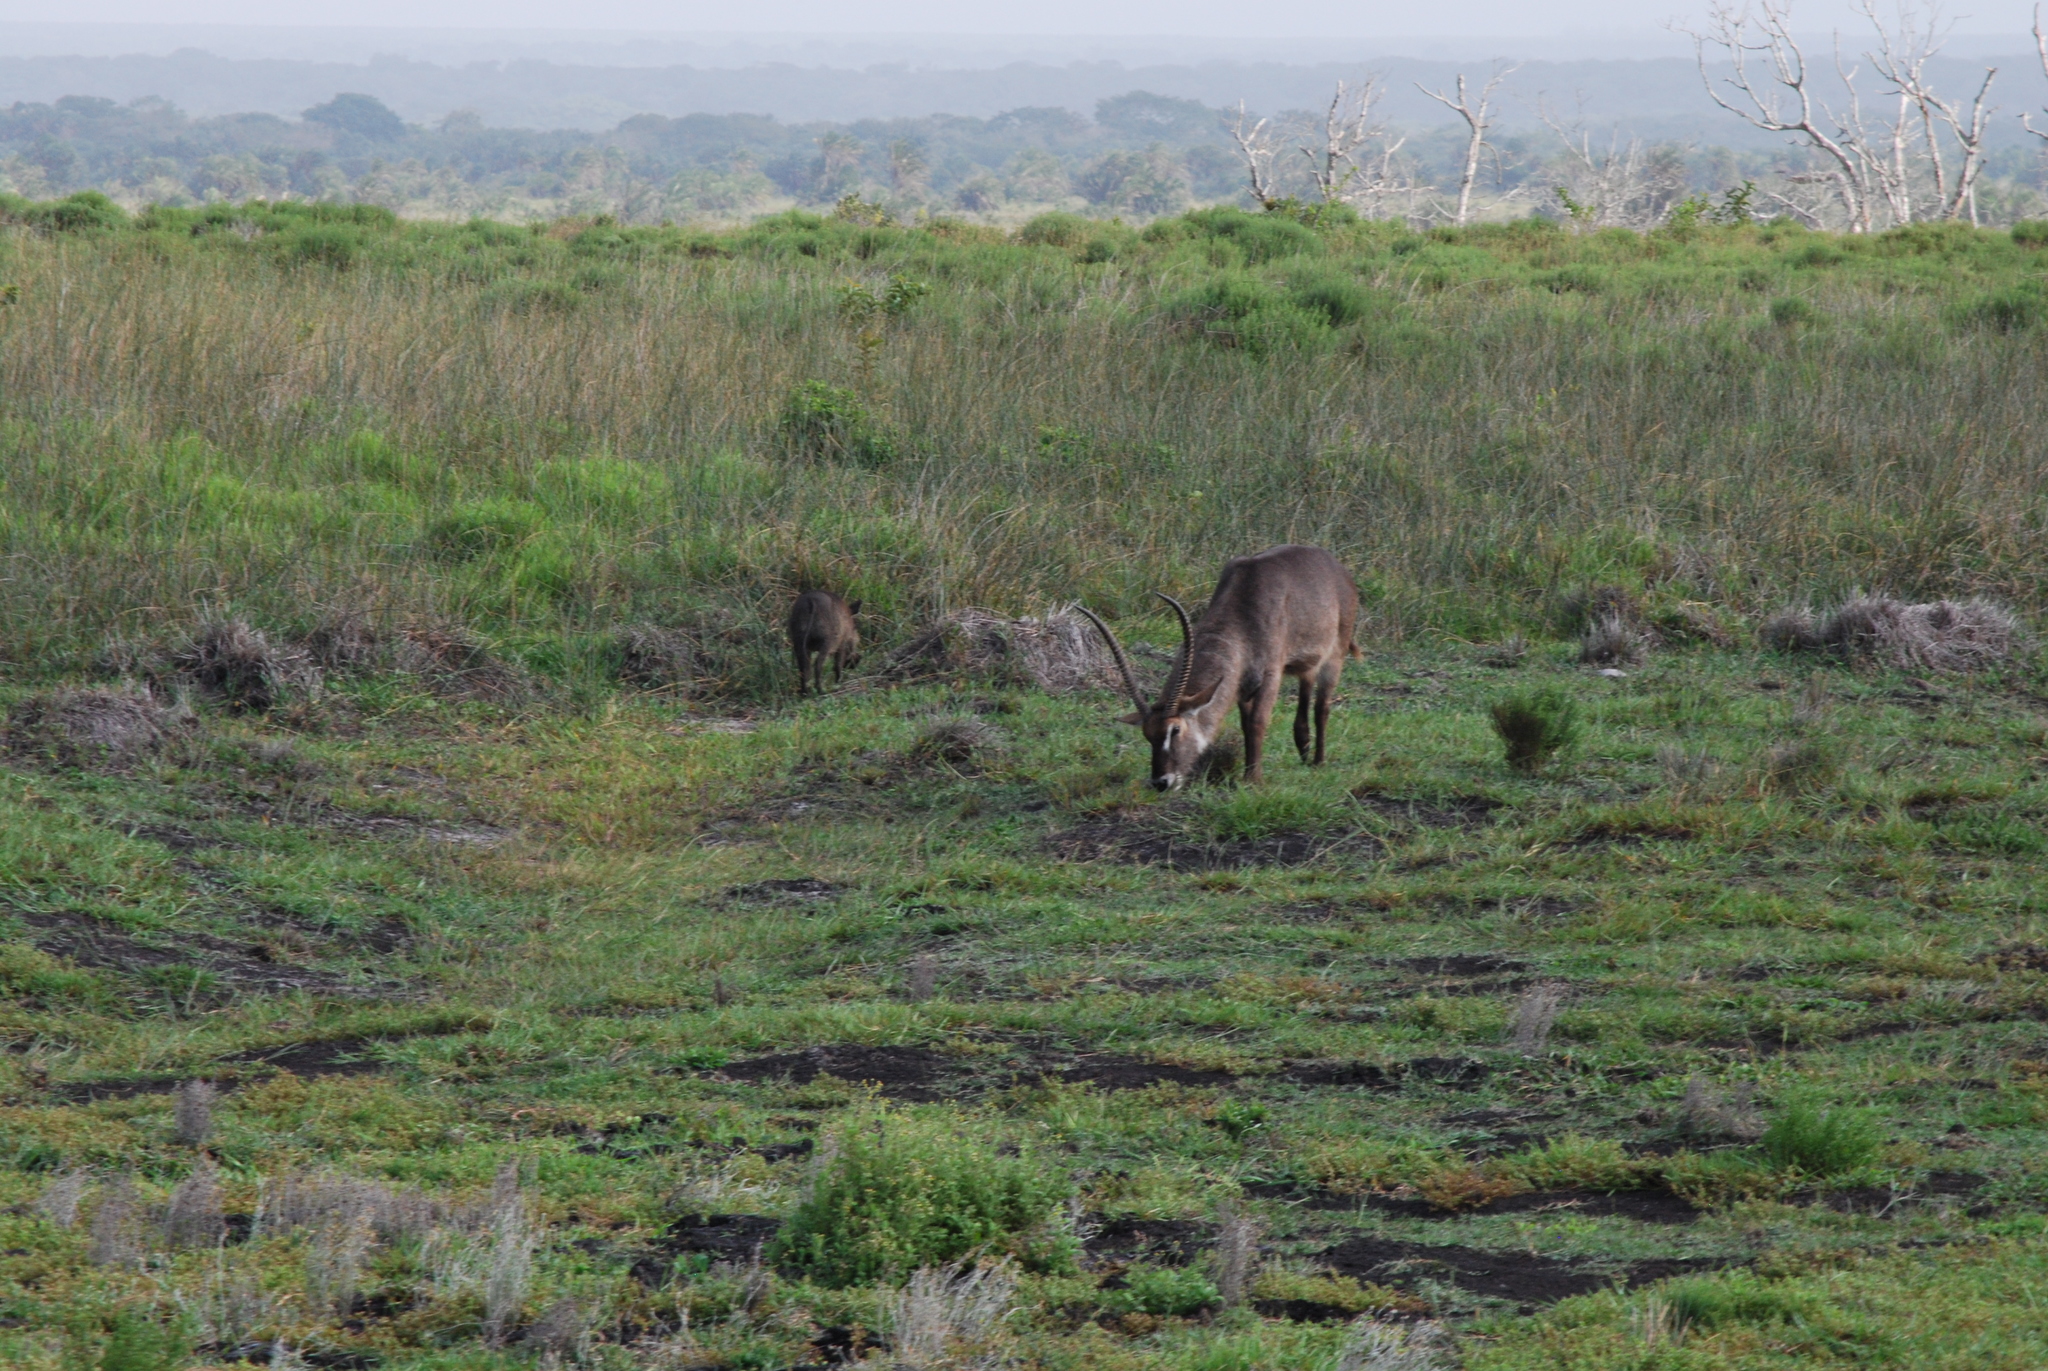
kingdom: Animalia
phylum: Chordata
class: Mammalia
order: Artiodactyla
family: Suidae
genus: Phacochoerus
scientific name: Phacochoerus africanus
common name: Common warthog
